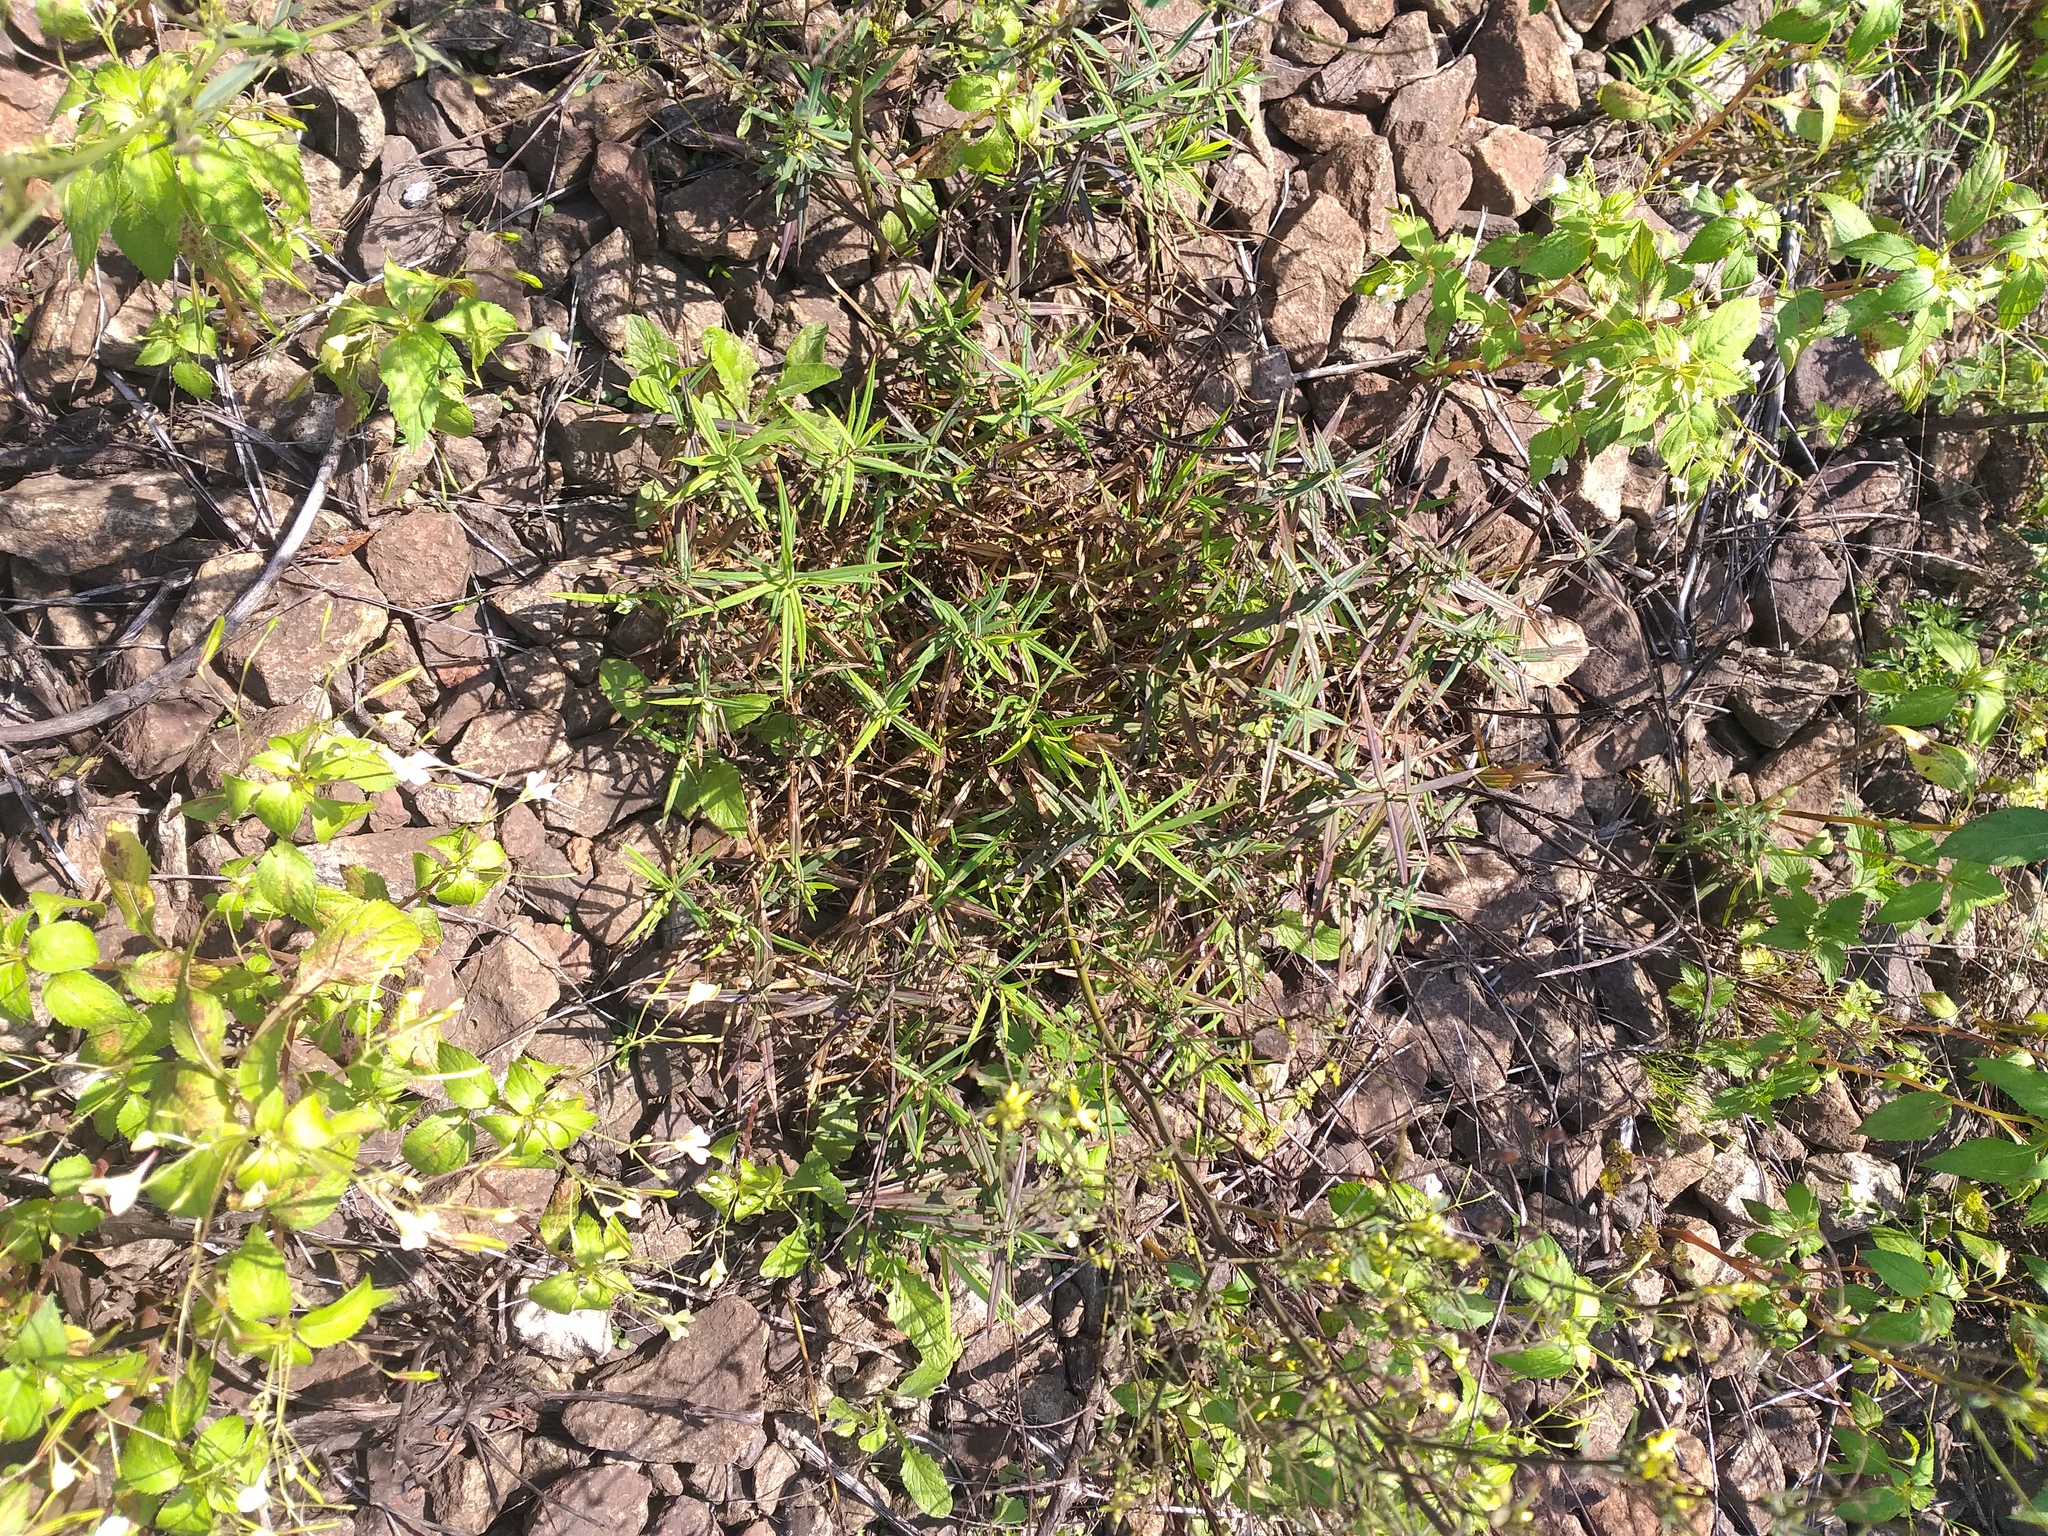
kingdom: Plantae
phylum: Tracheophyta
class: Magnoliopsida
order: Caryophyllales
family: Caryophyllaceae
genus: Rabelera
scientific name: Rabelera holostea
